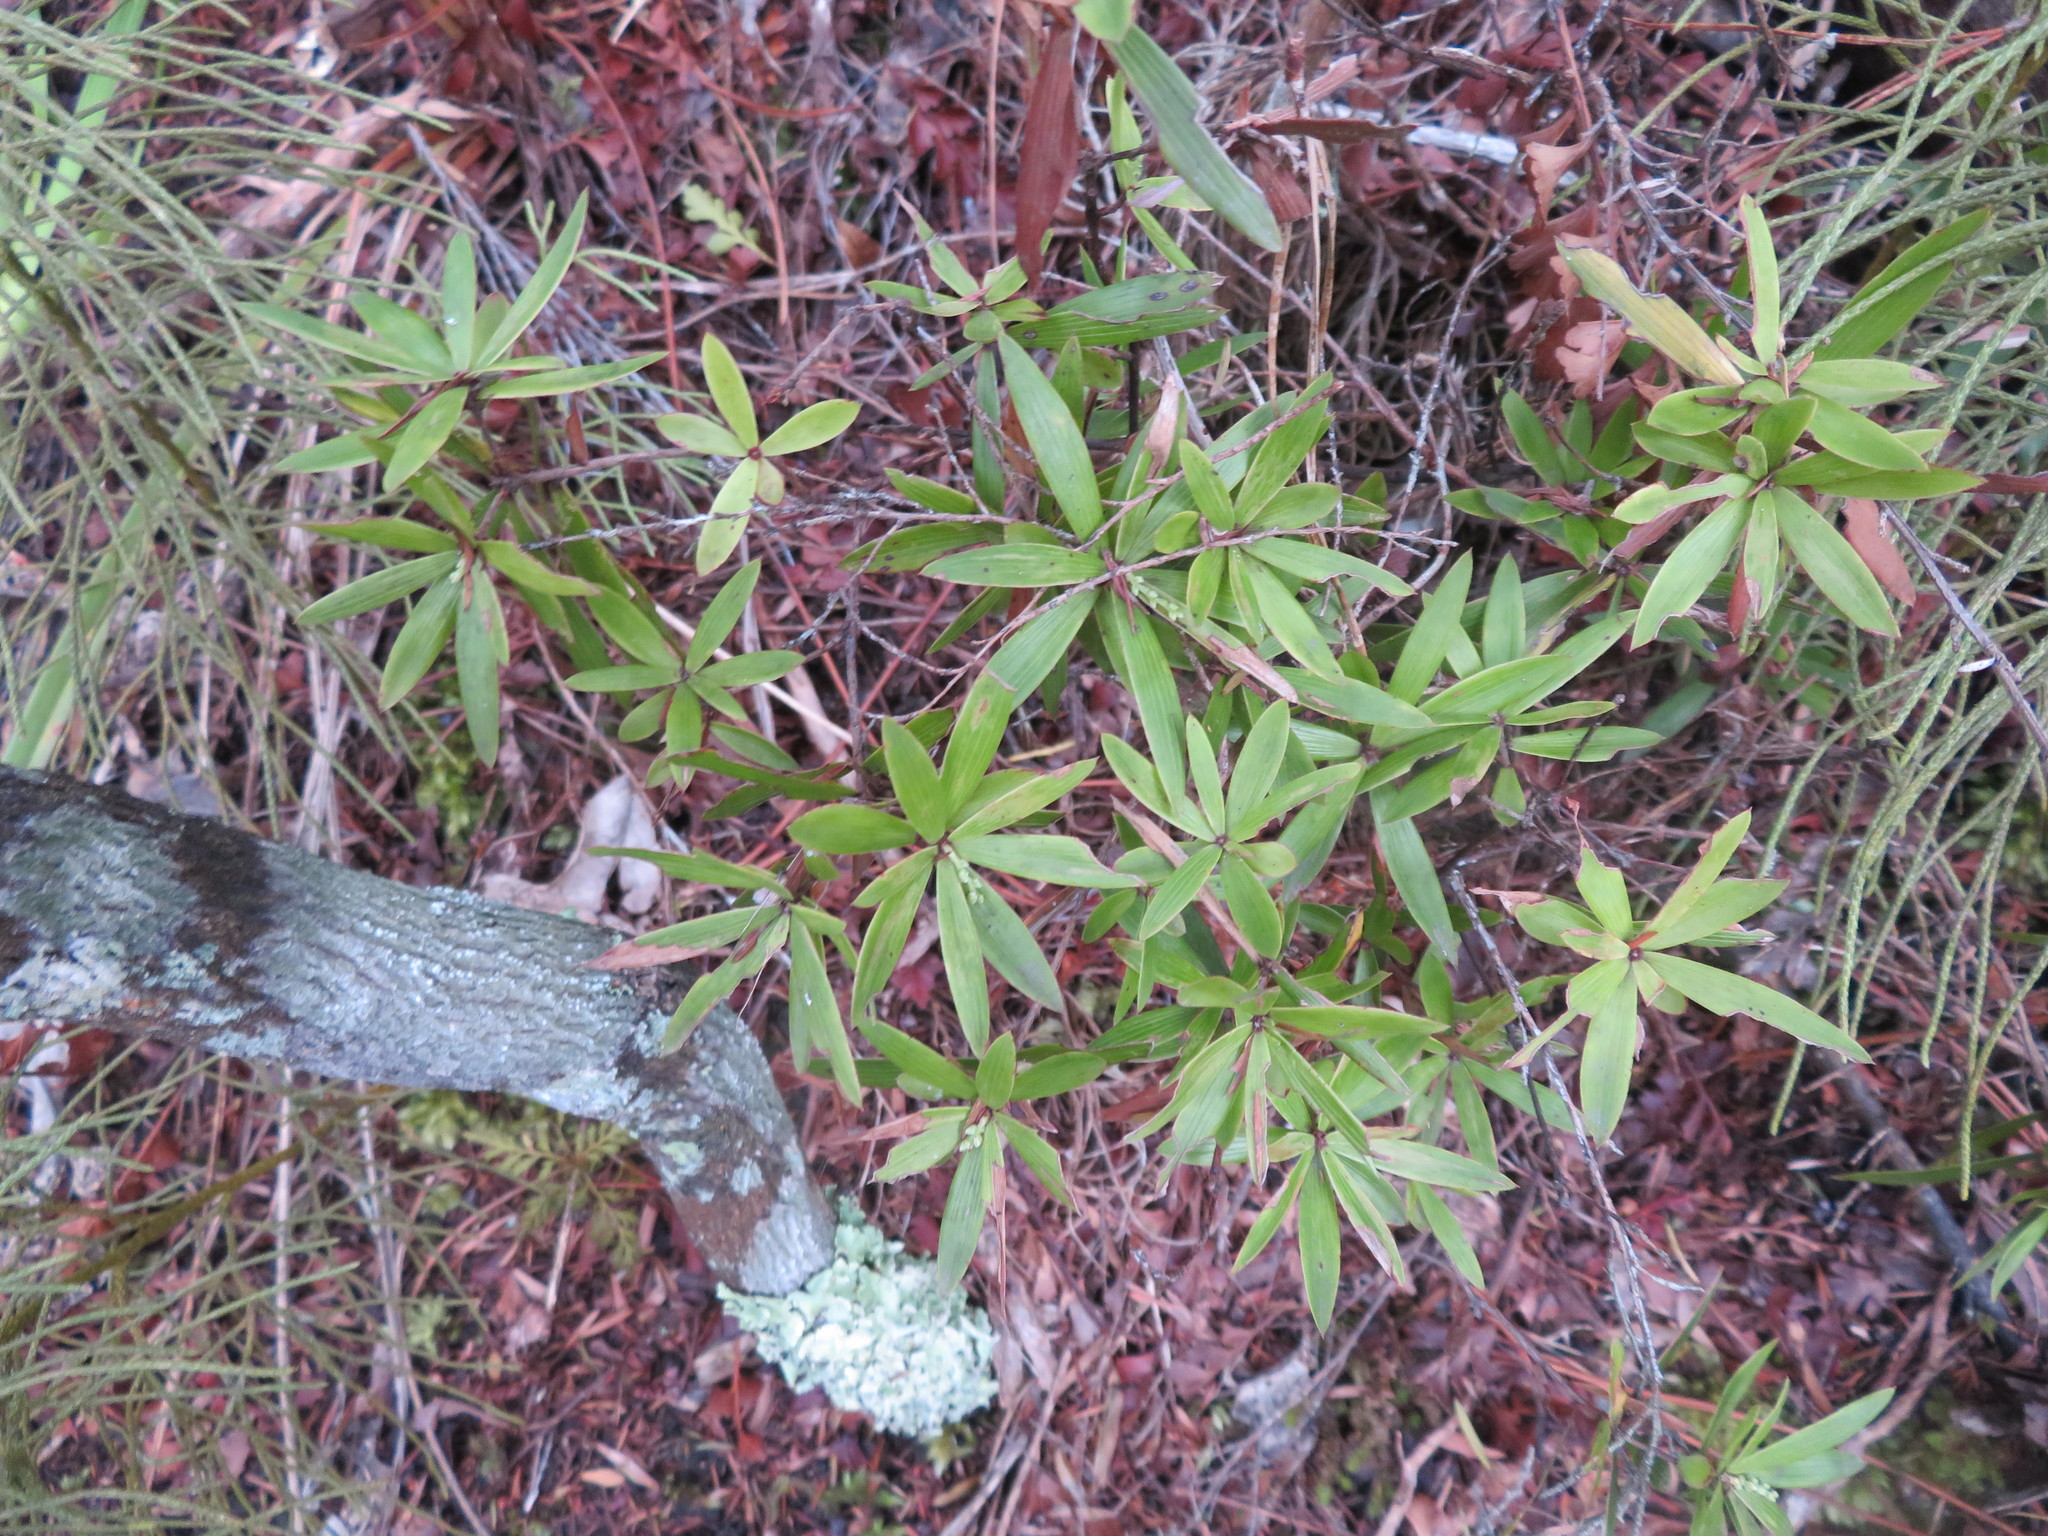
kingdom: Plantae
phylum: Tracheophyta
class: Magnoliopsida
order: Ericales
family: Ericaceae
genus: Leucopogon
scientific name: Leucopogon fasciculatus
